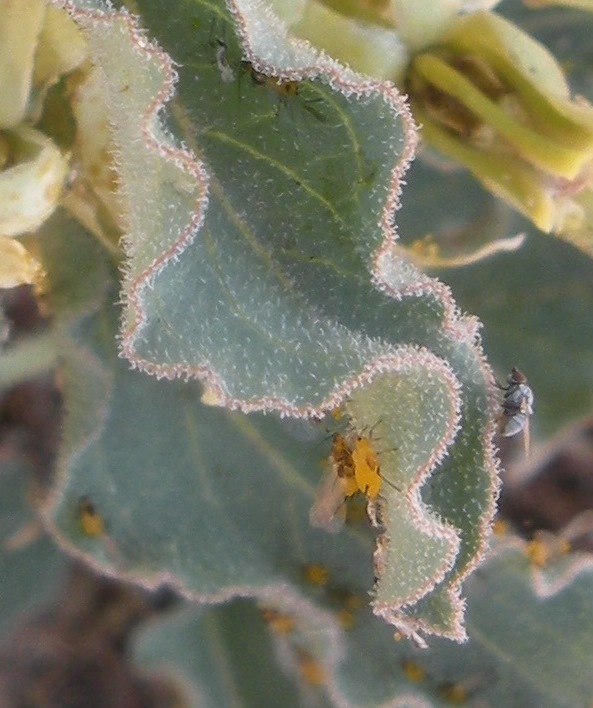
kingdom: Animalia
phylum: Arthropoda
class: Insecta
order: Hemiptera
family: Aphididae
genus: Aphis
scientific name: Aphis nerii
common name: Oleander aphid
